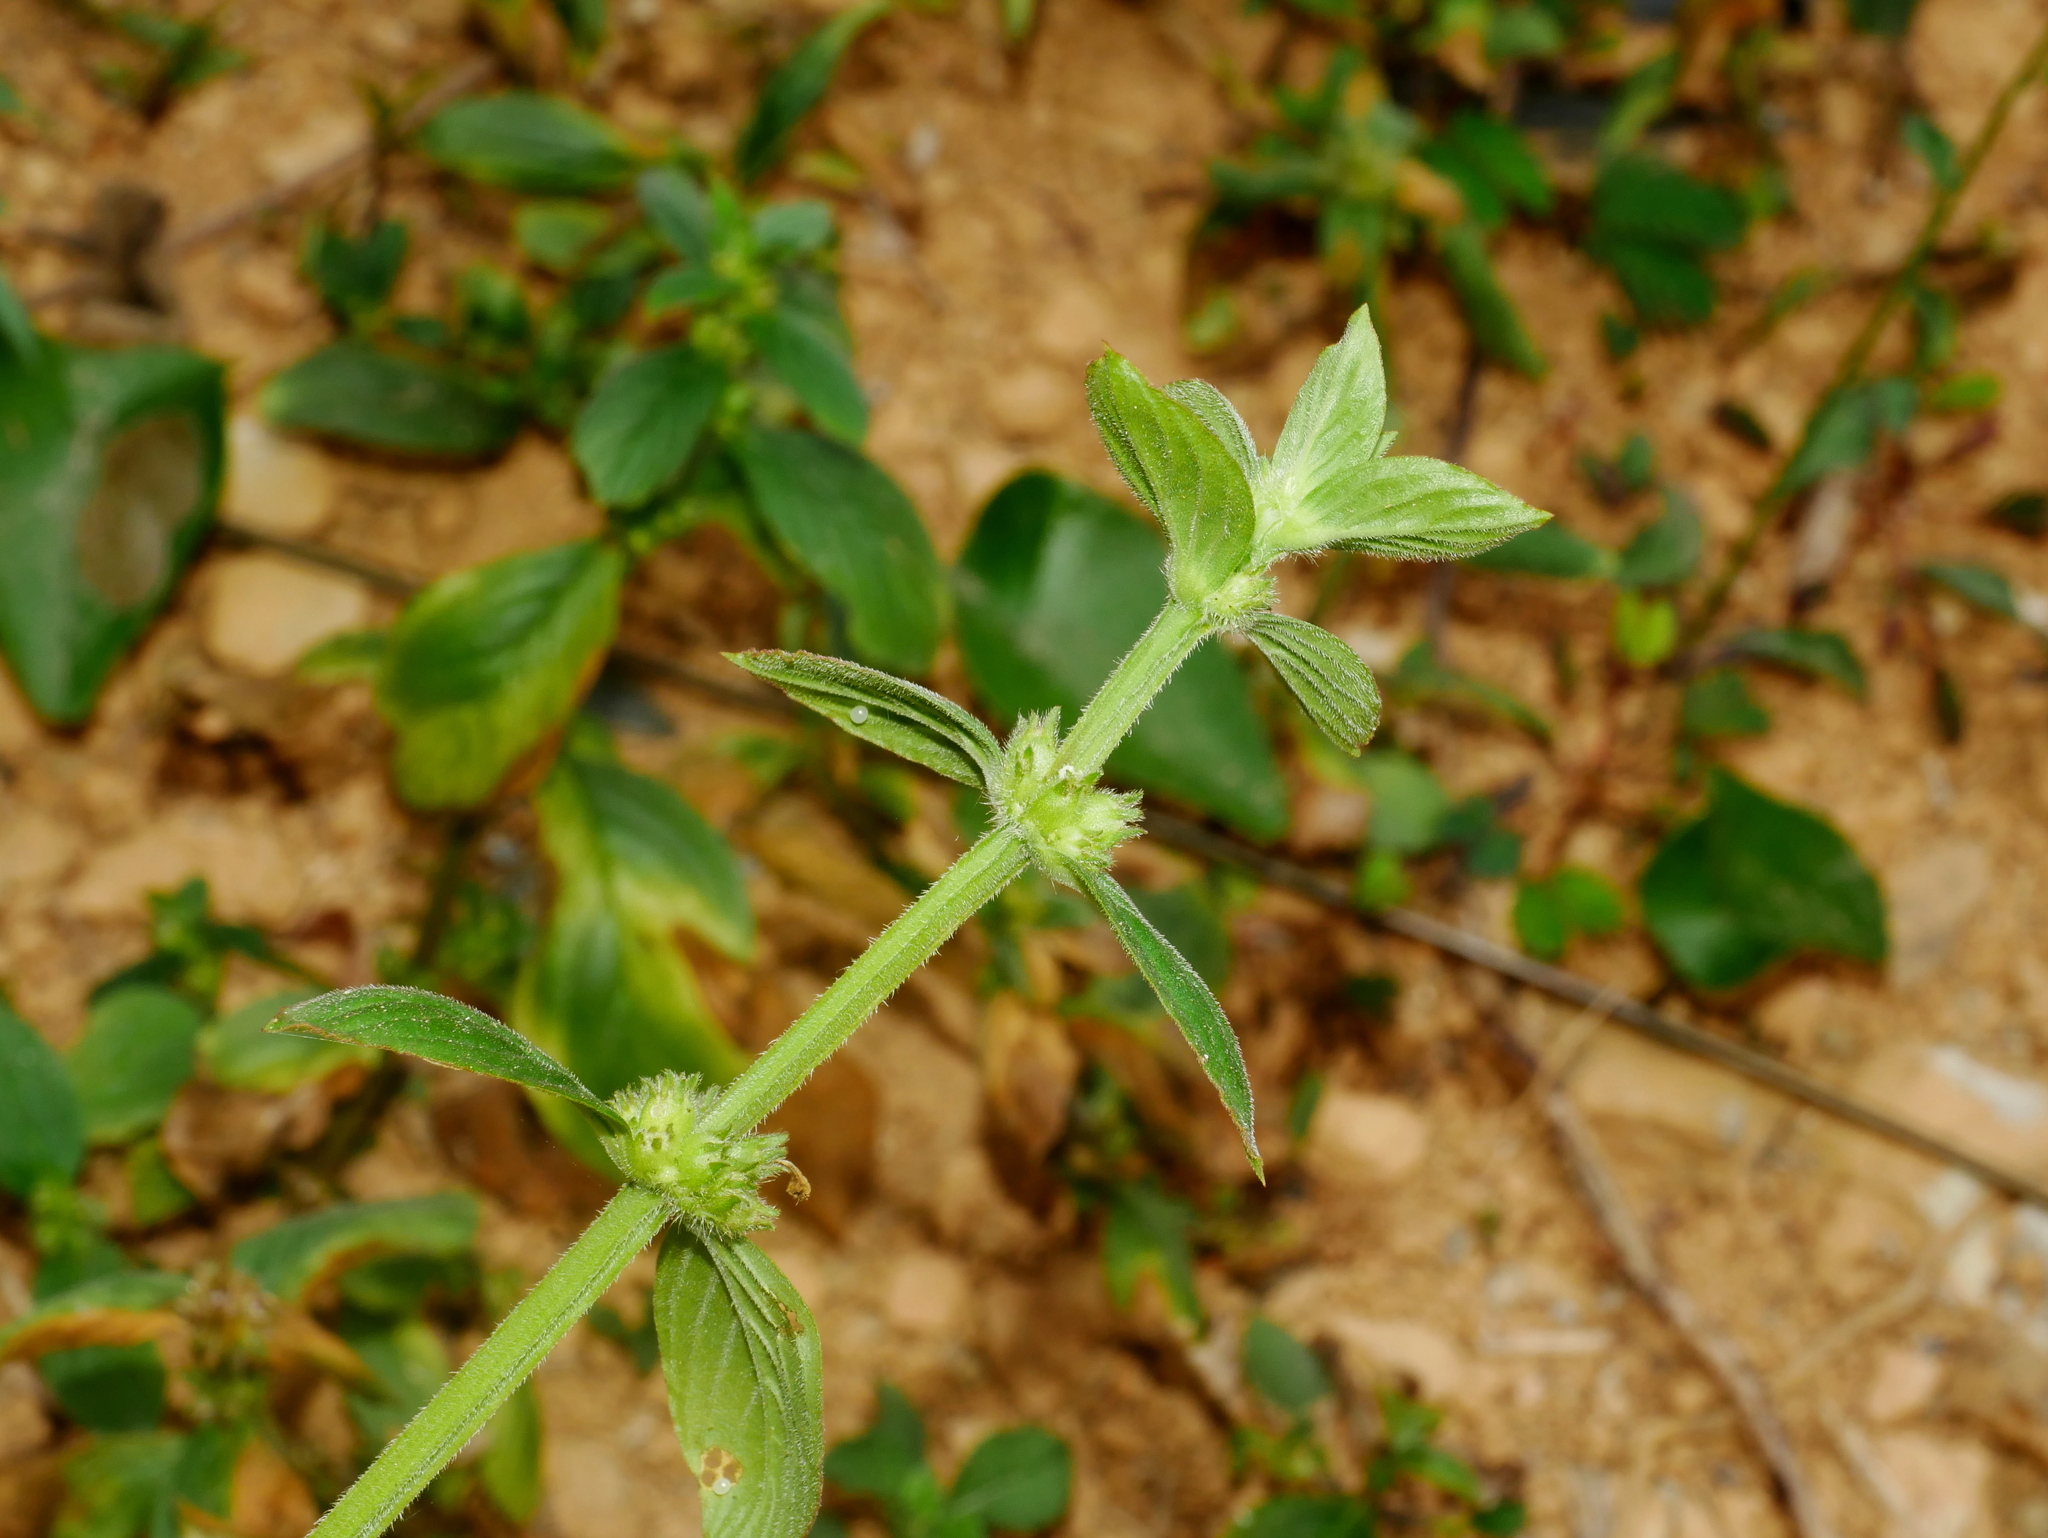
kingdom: Plantae
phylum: Tracheophyta
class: Magnoliopsida
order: Gentianales
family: Rubiaceae
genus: Spermacoce
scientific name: Spermacoce latifolia
